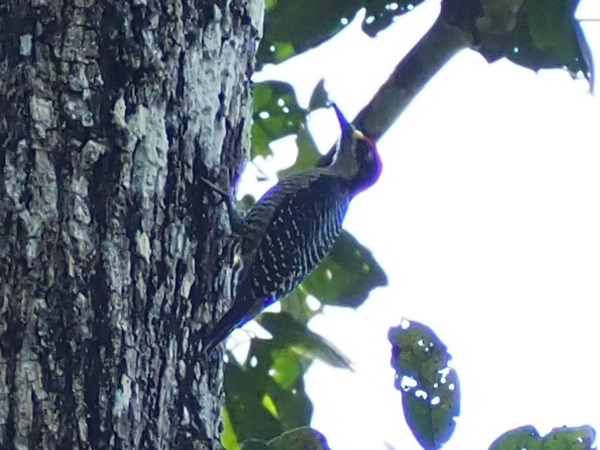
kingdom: Animalia
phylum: Chordata
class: Aves
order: Piciformes
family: Picidae
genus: Melanerpes
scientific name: Melanerpes pucherani
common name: Black-cheeked woodpecker
